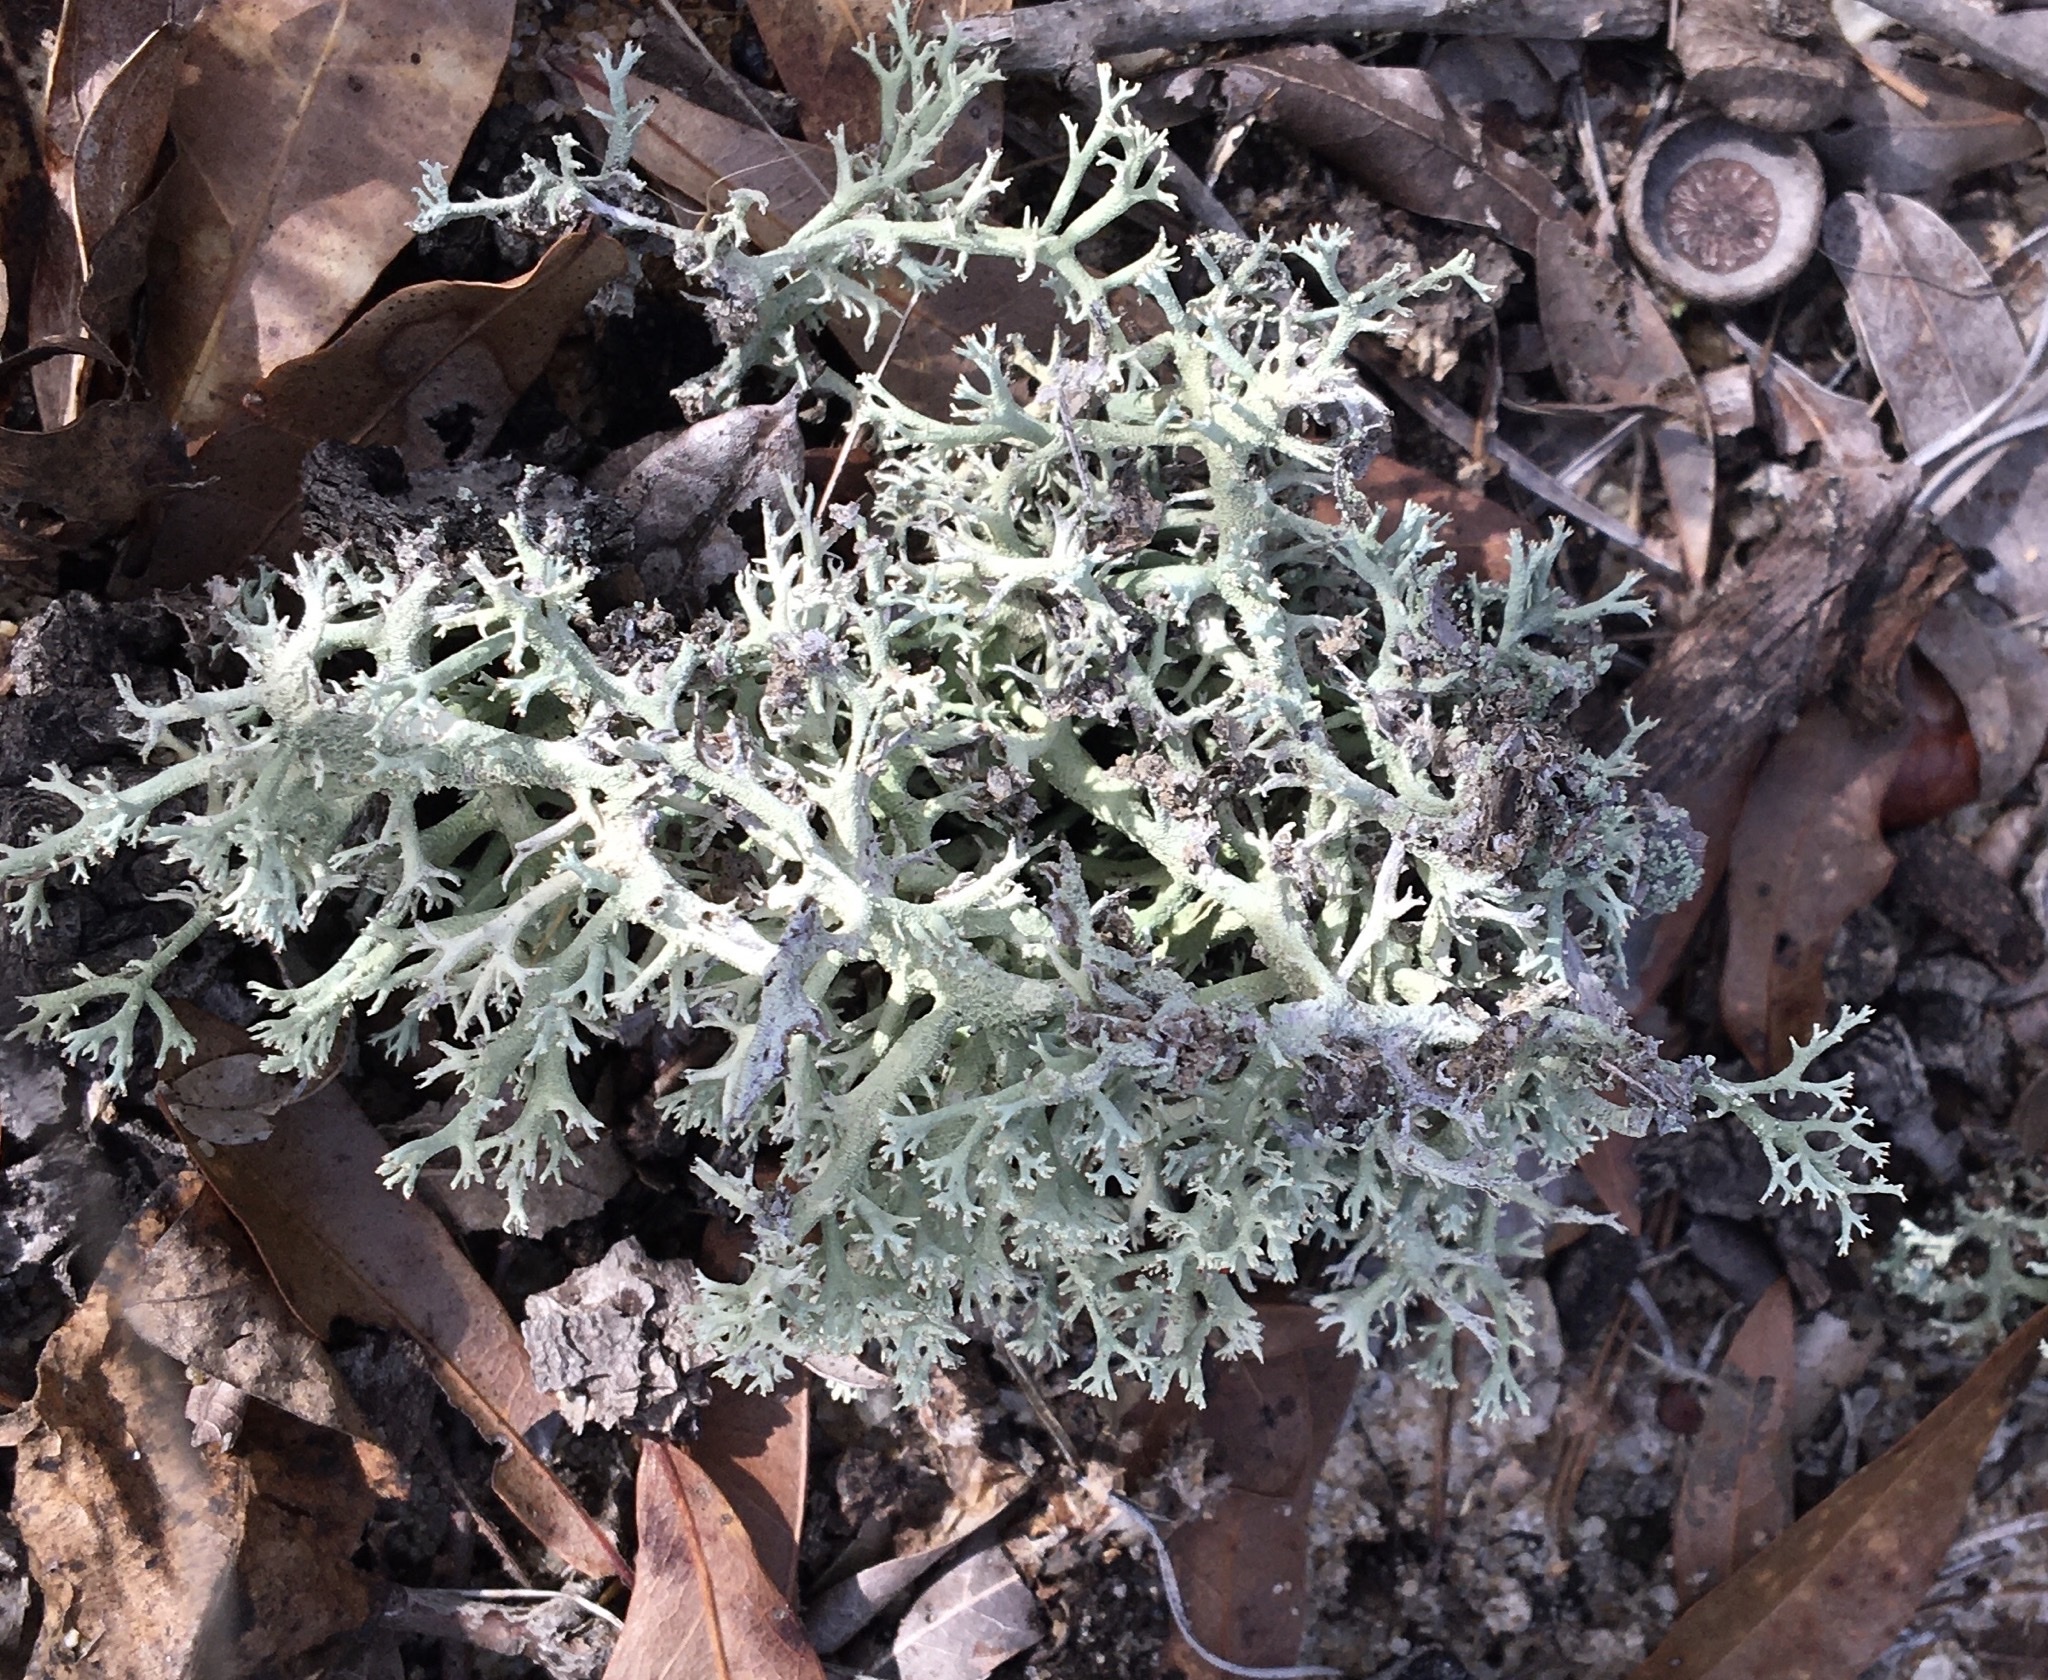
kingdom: Fungi
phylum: Ascomycota
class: Lecanoromycetes
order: Lecanorales
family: Cladoniaceae
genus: Cladonia
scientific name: Cladonia leporina
